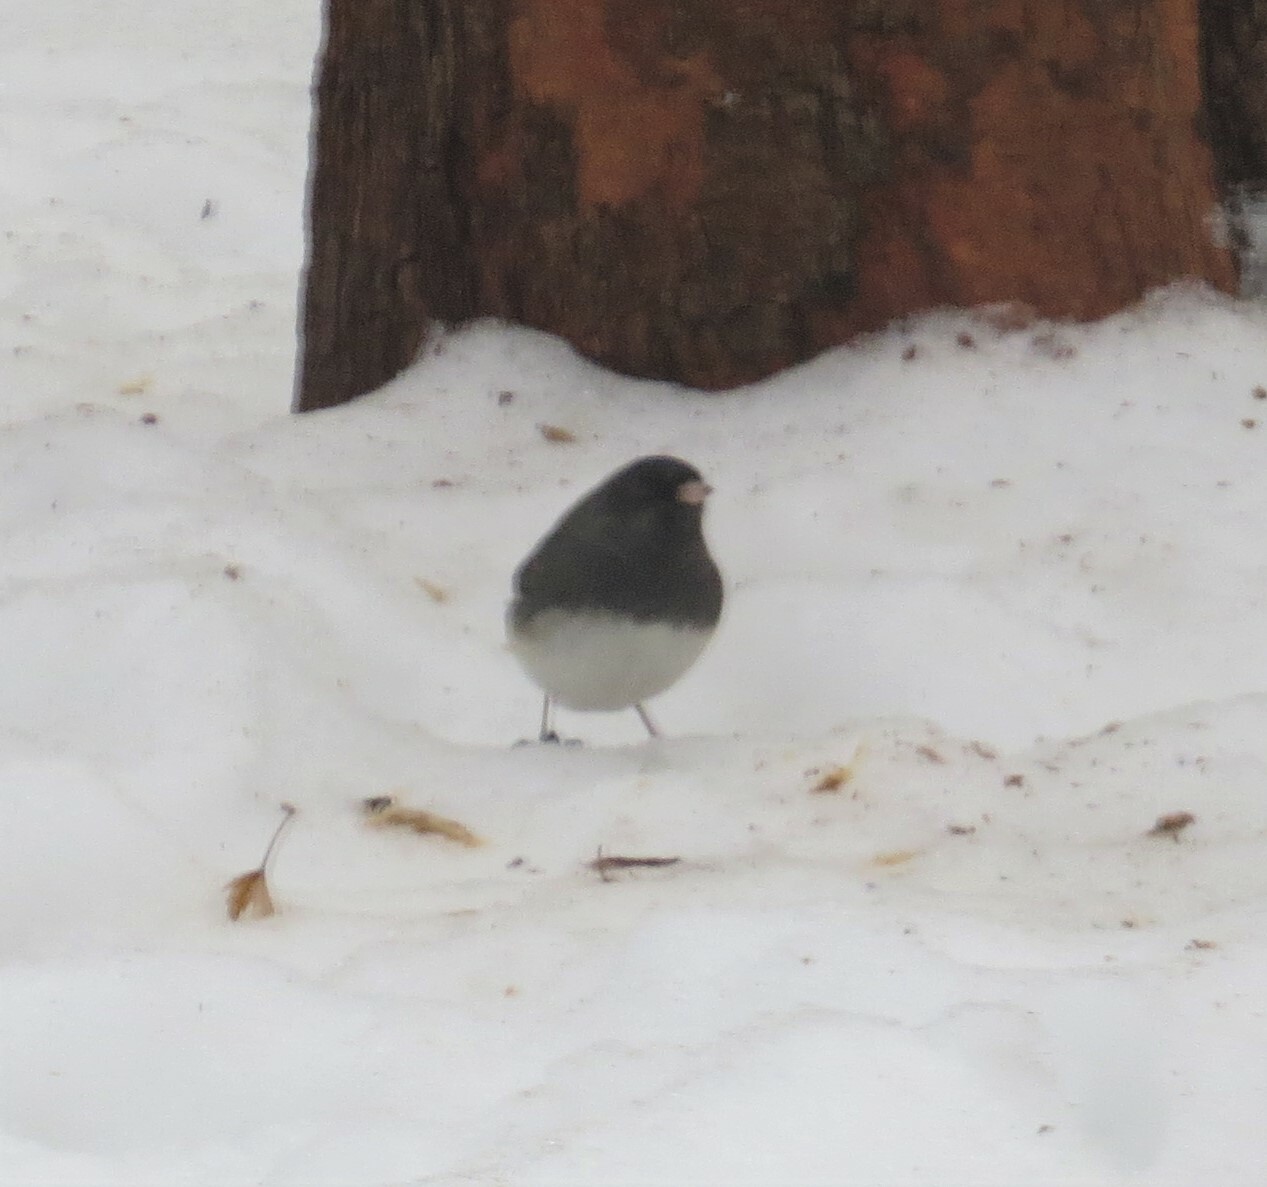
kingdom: Animalia
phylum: Chordata
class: Aves
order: Passeriformes
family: Passerellidae
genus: Junco
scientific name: Junco hyemalis
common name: Dark-eyed junco
